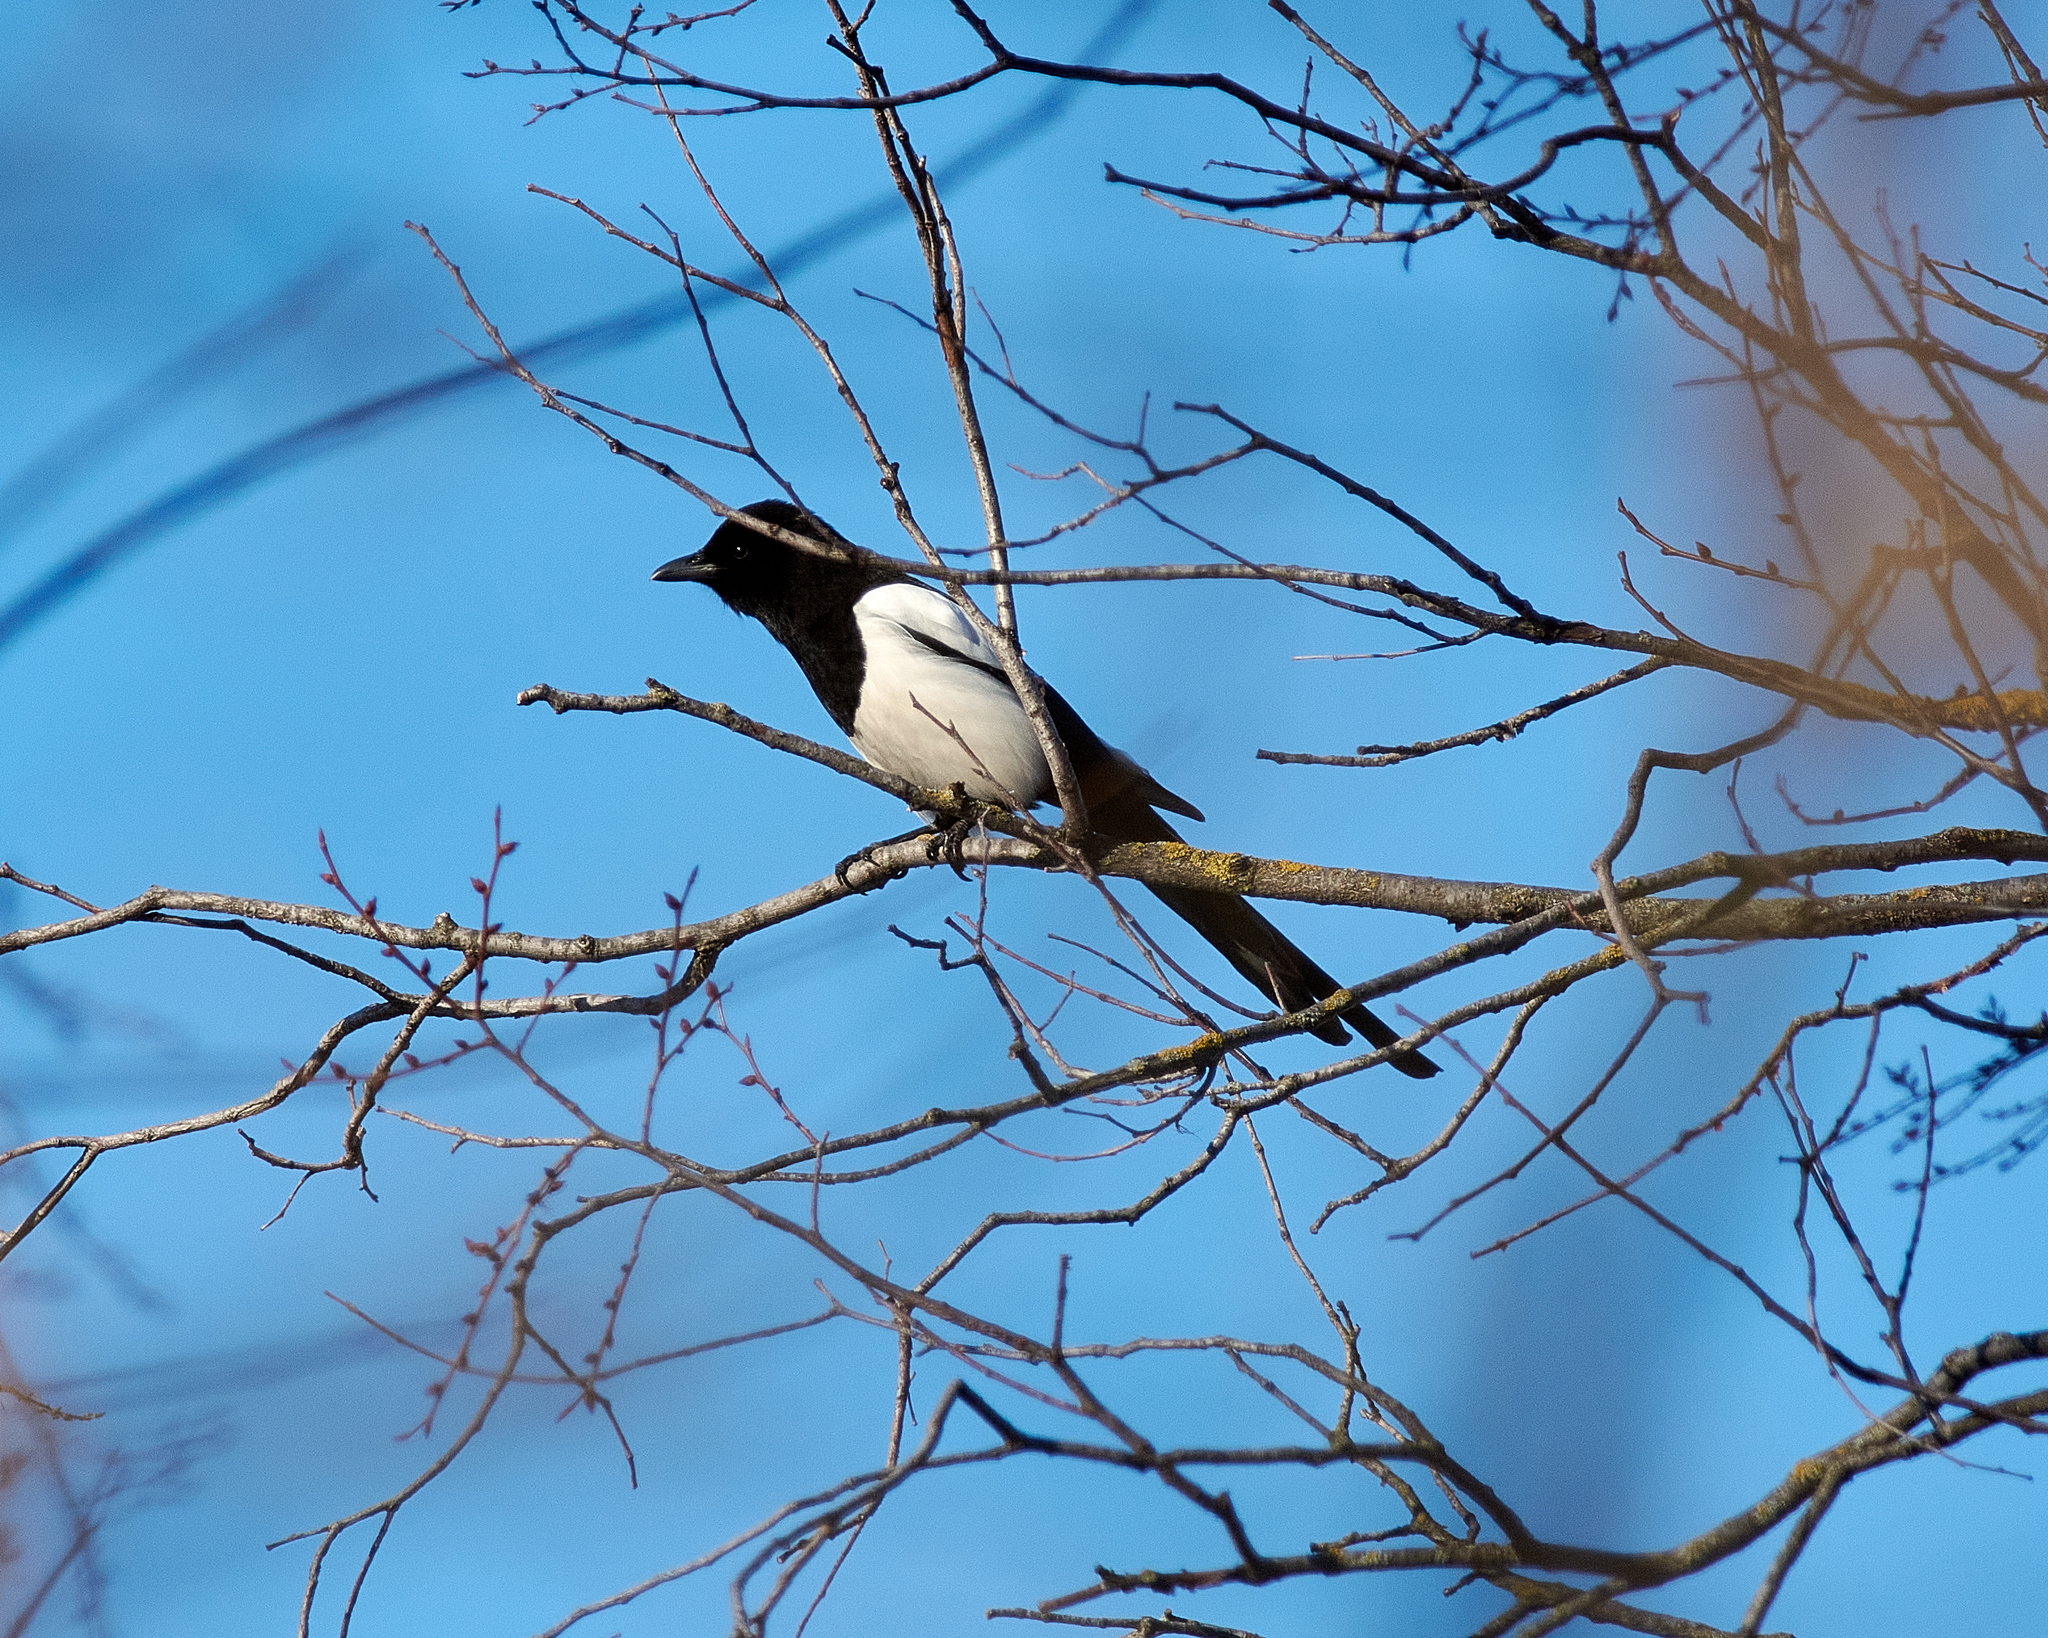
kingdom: Animalia
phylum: Chordata
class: Aves
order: Passeriformes
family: Corvidae
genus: Pica
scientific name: Pica pica
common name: Eurasian magpie
